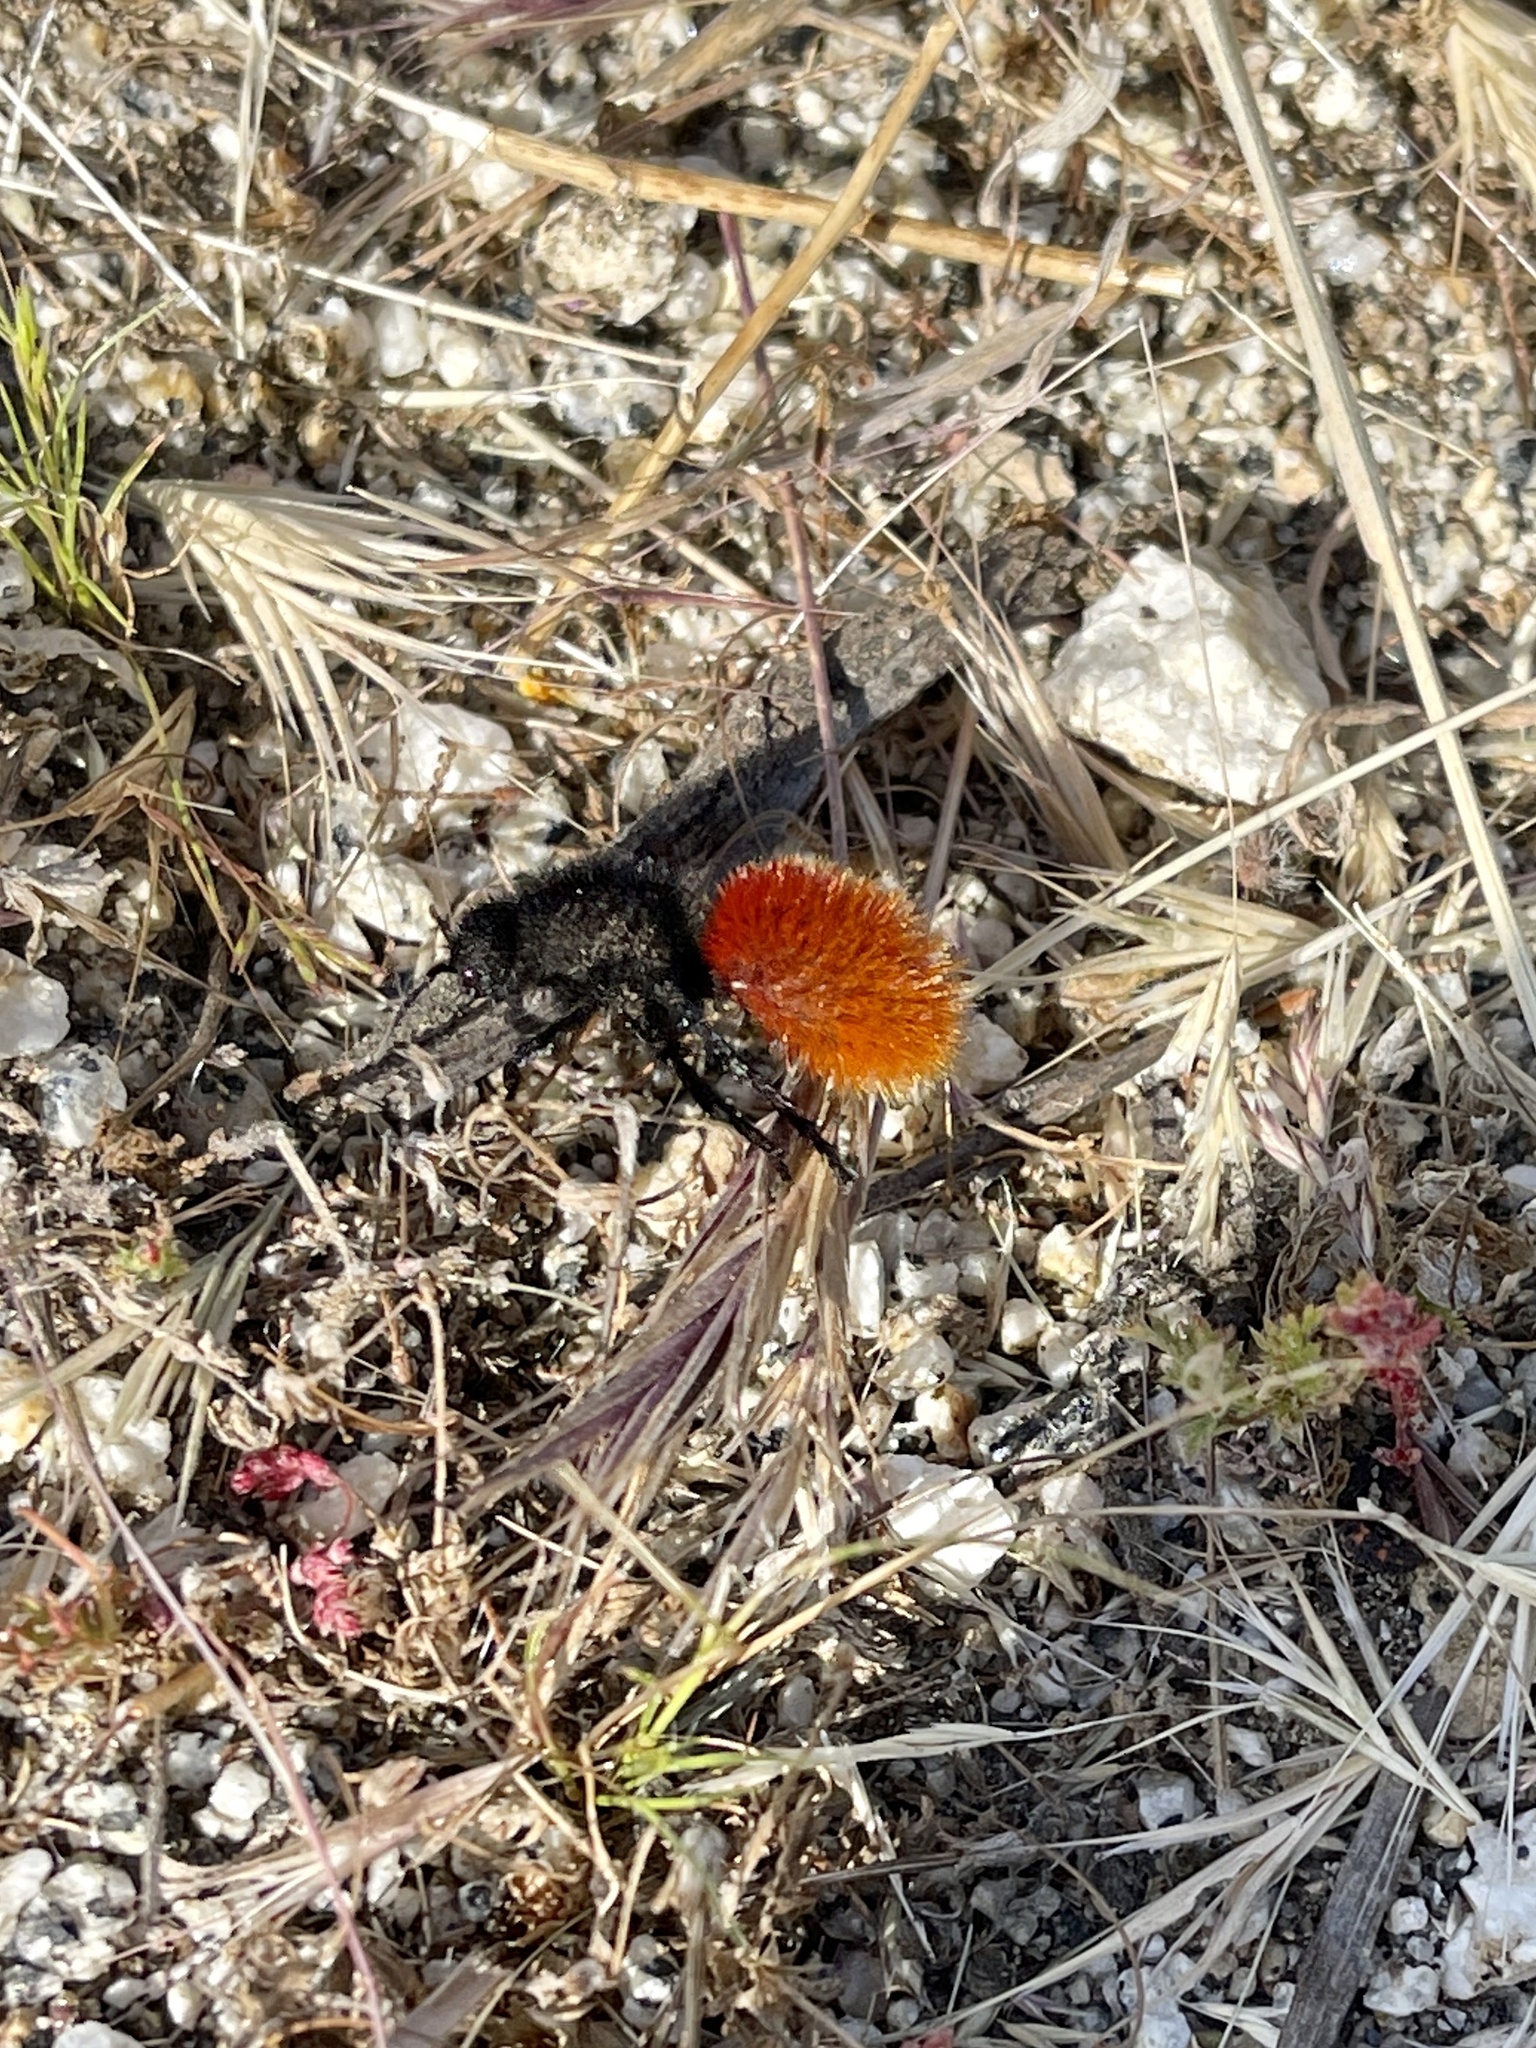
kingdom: Animalia
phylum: Arthropoda
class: Insecta
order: Hymenoptera
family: Mutillidae
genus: Dasymutilla
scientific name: Dasymutilla magnifica
